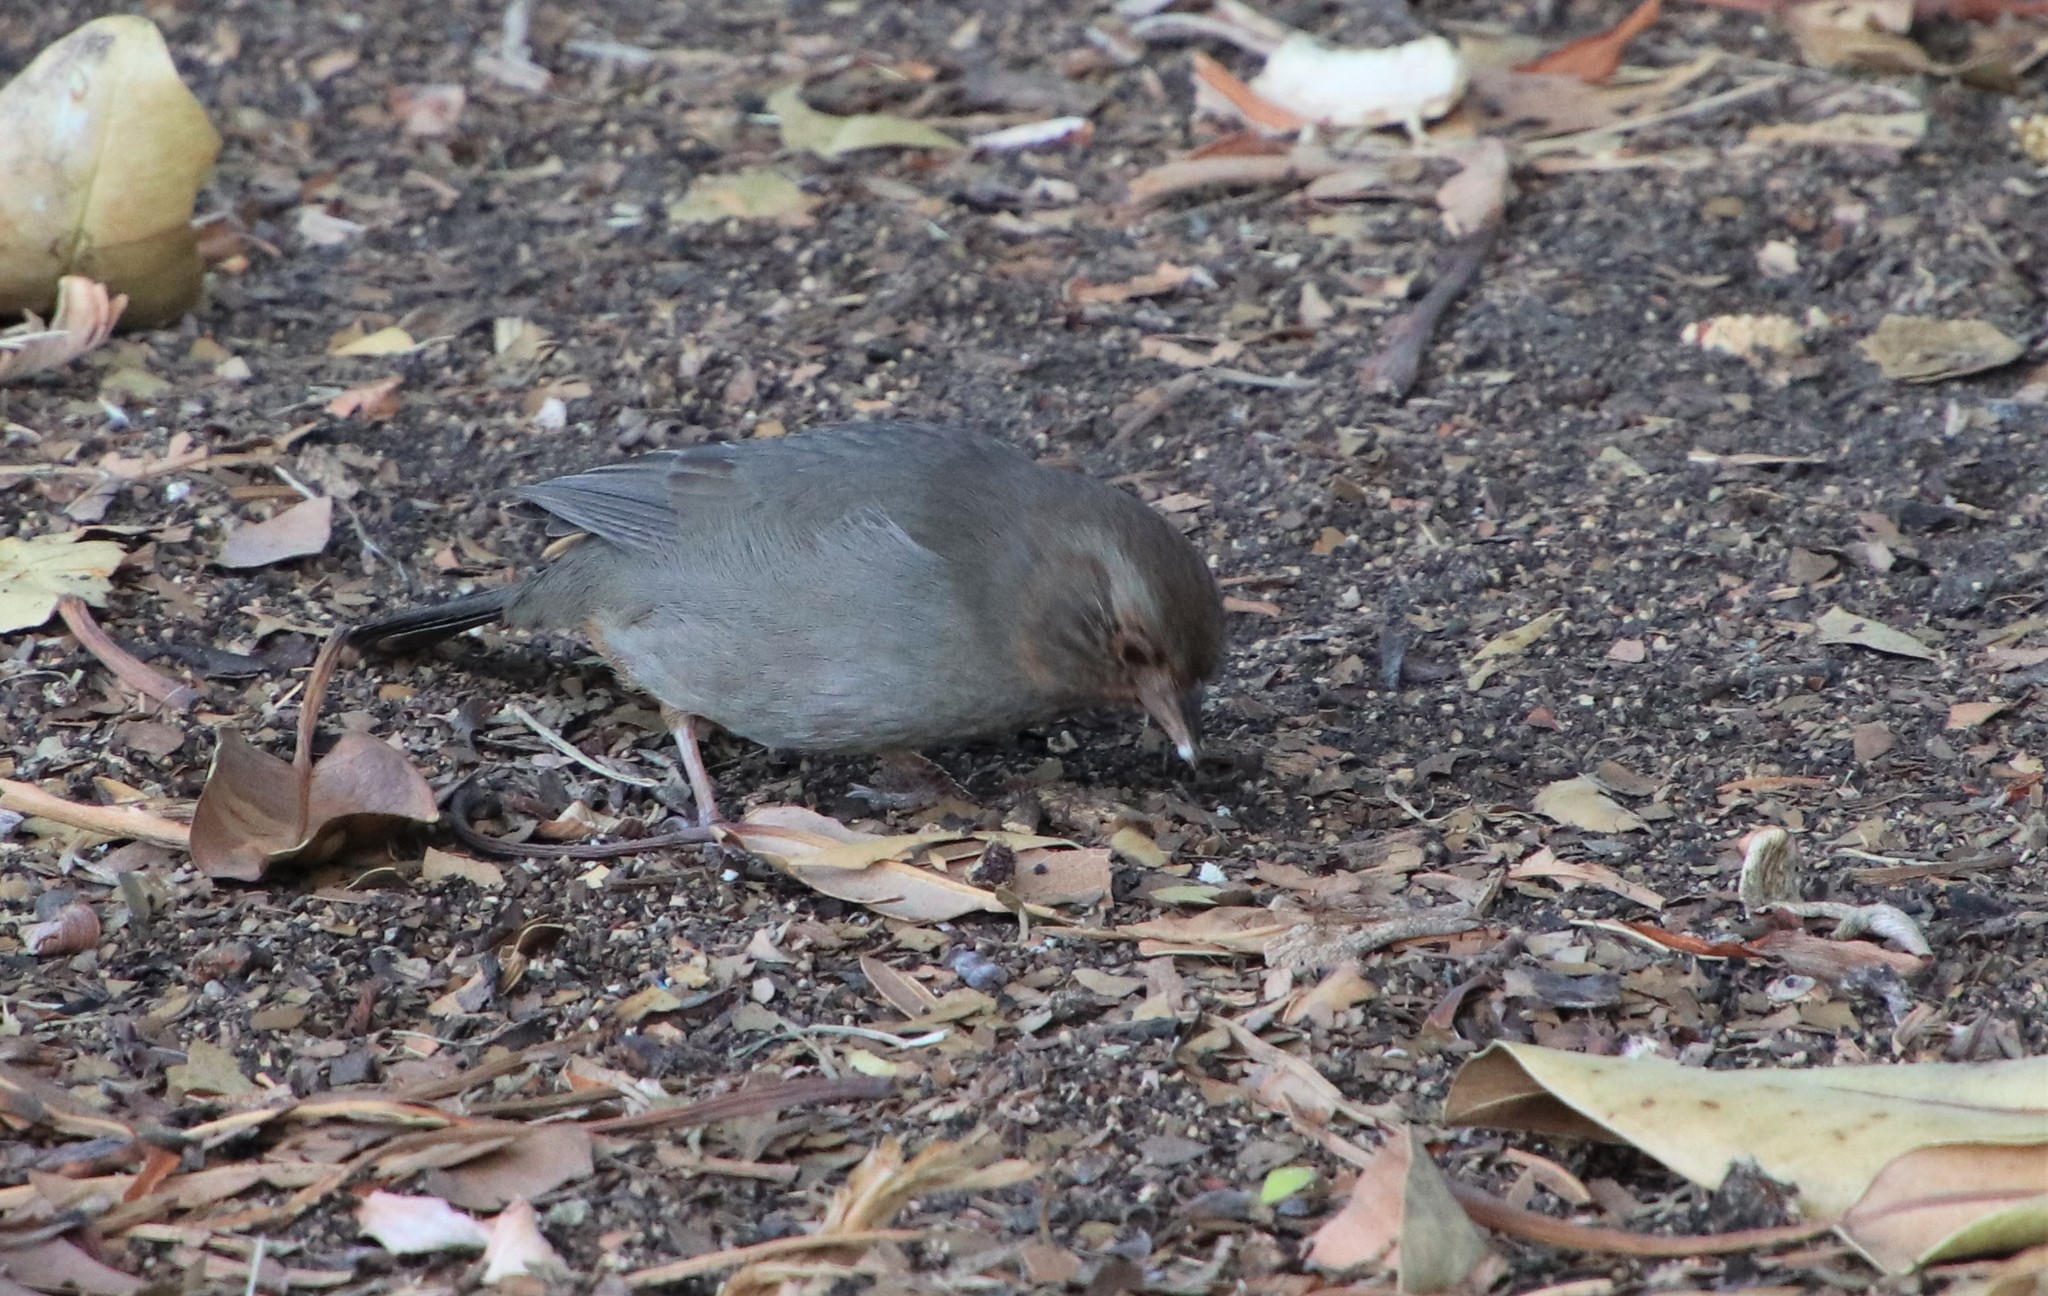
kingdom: Animalia
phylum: Chordata
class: Aves
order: Passeriformes
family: Passerellidae
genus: Melozone
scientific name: Melozone crissalis
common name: California towhee
